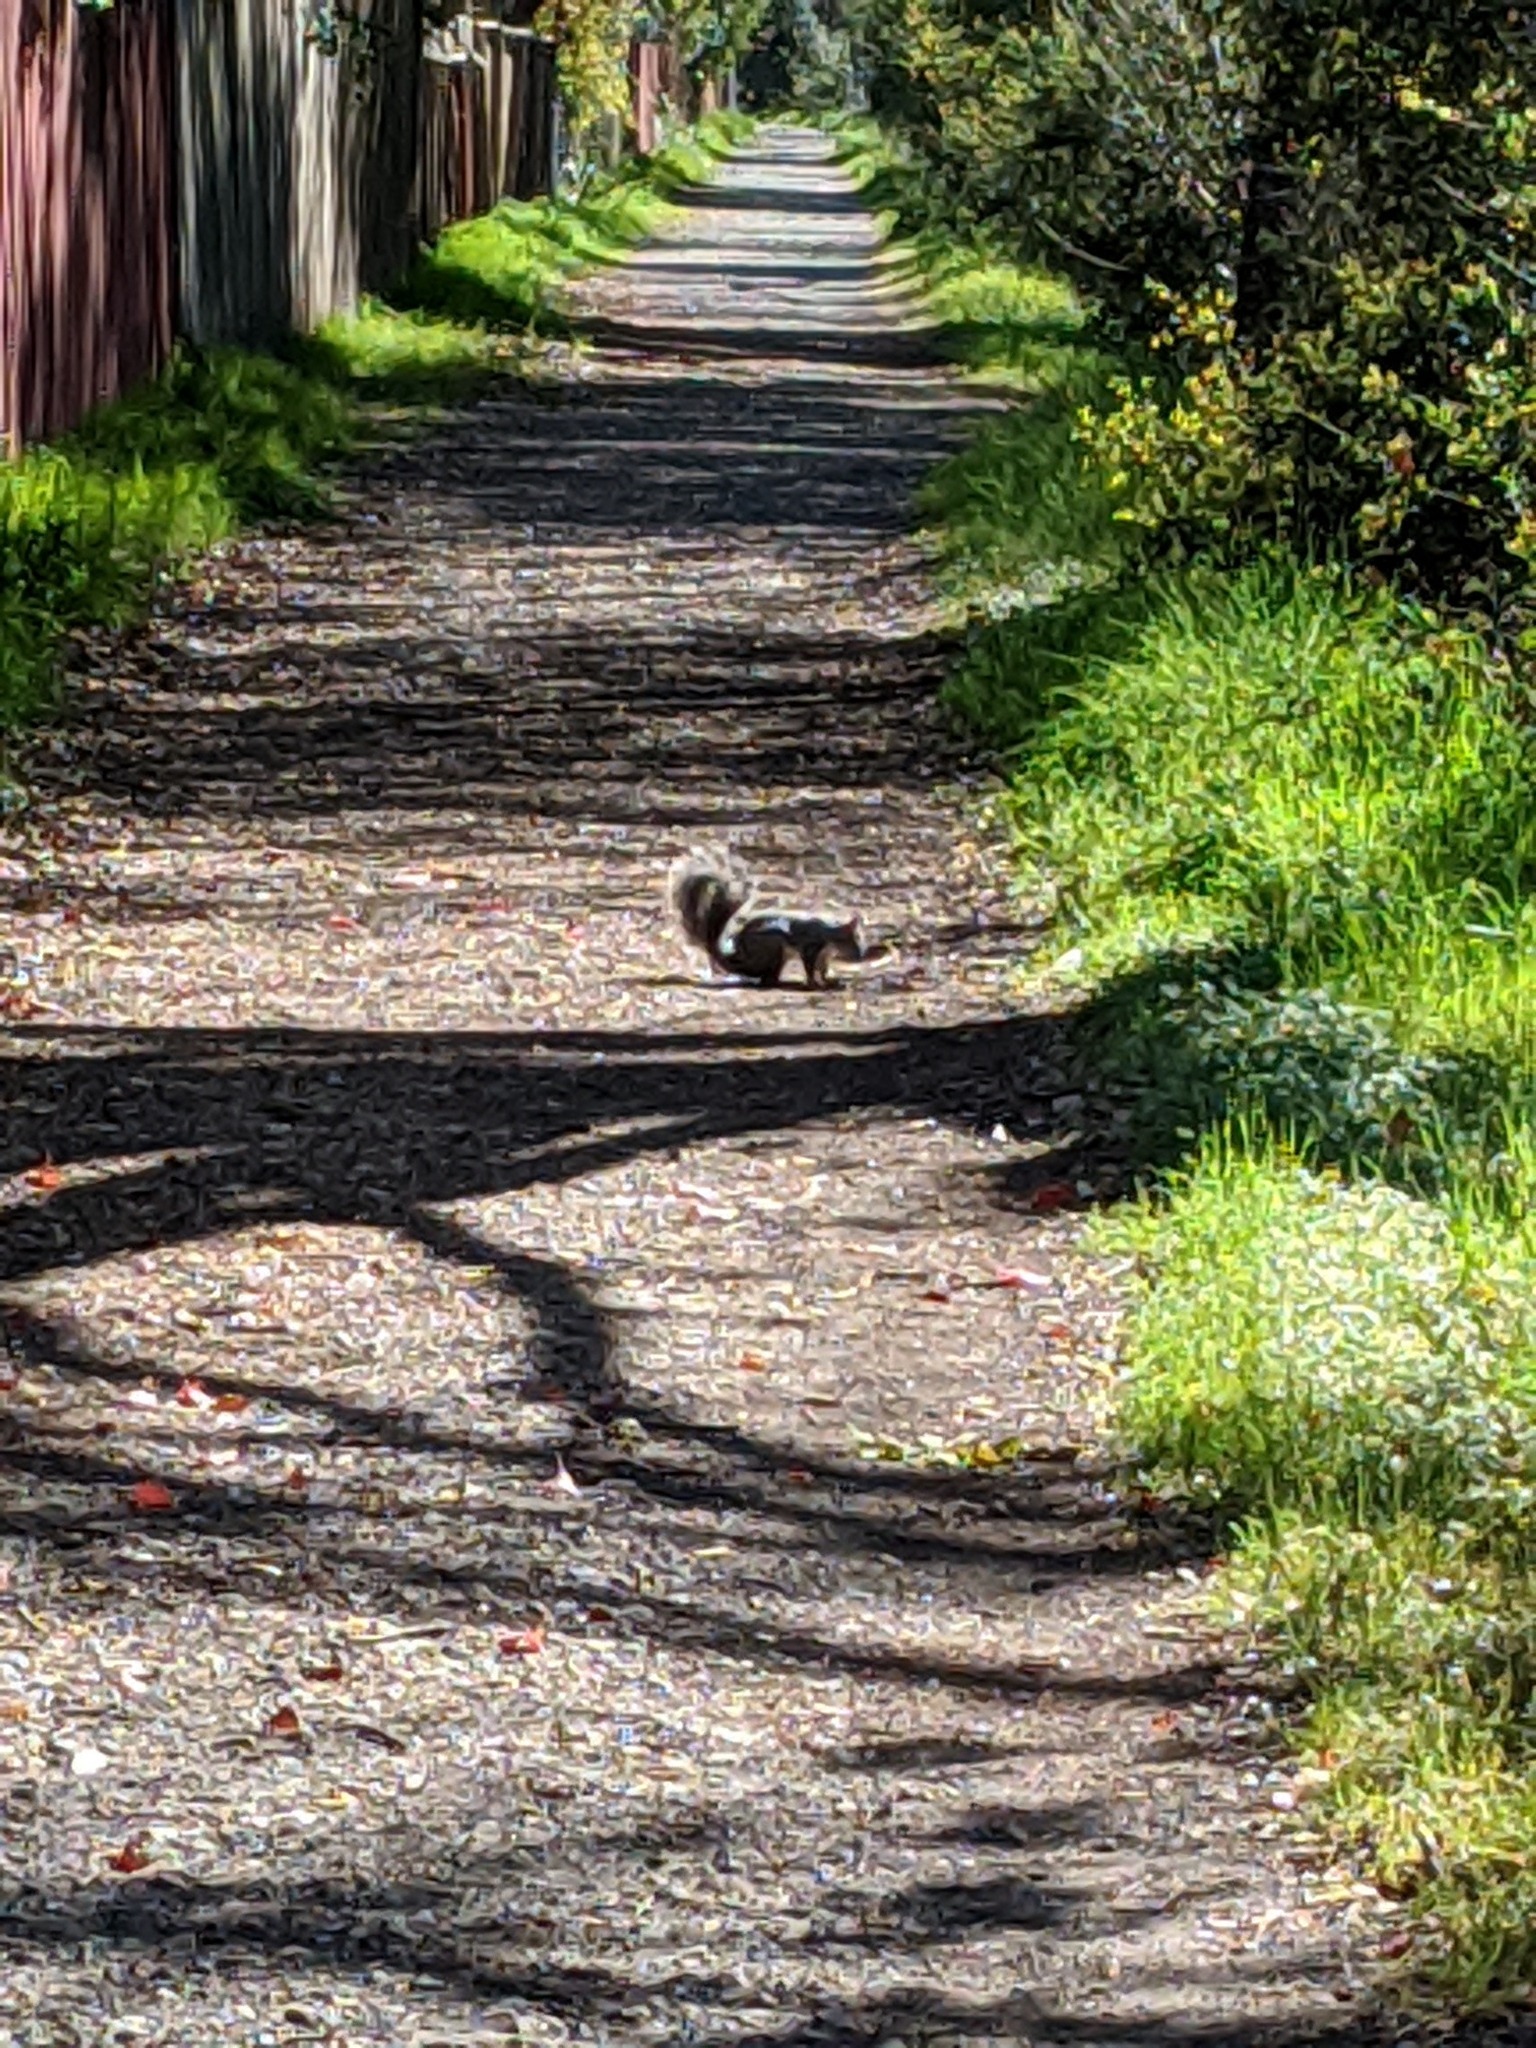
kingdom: Animalia
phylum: Chordata
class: Mammalia
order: Rodentia
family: Sciuridae
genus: Sciurus
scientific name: Sciurus griseus
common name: Western gray squirrel
